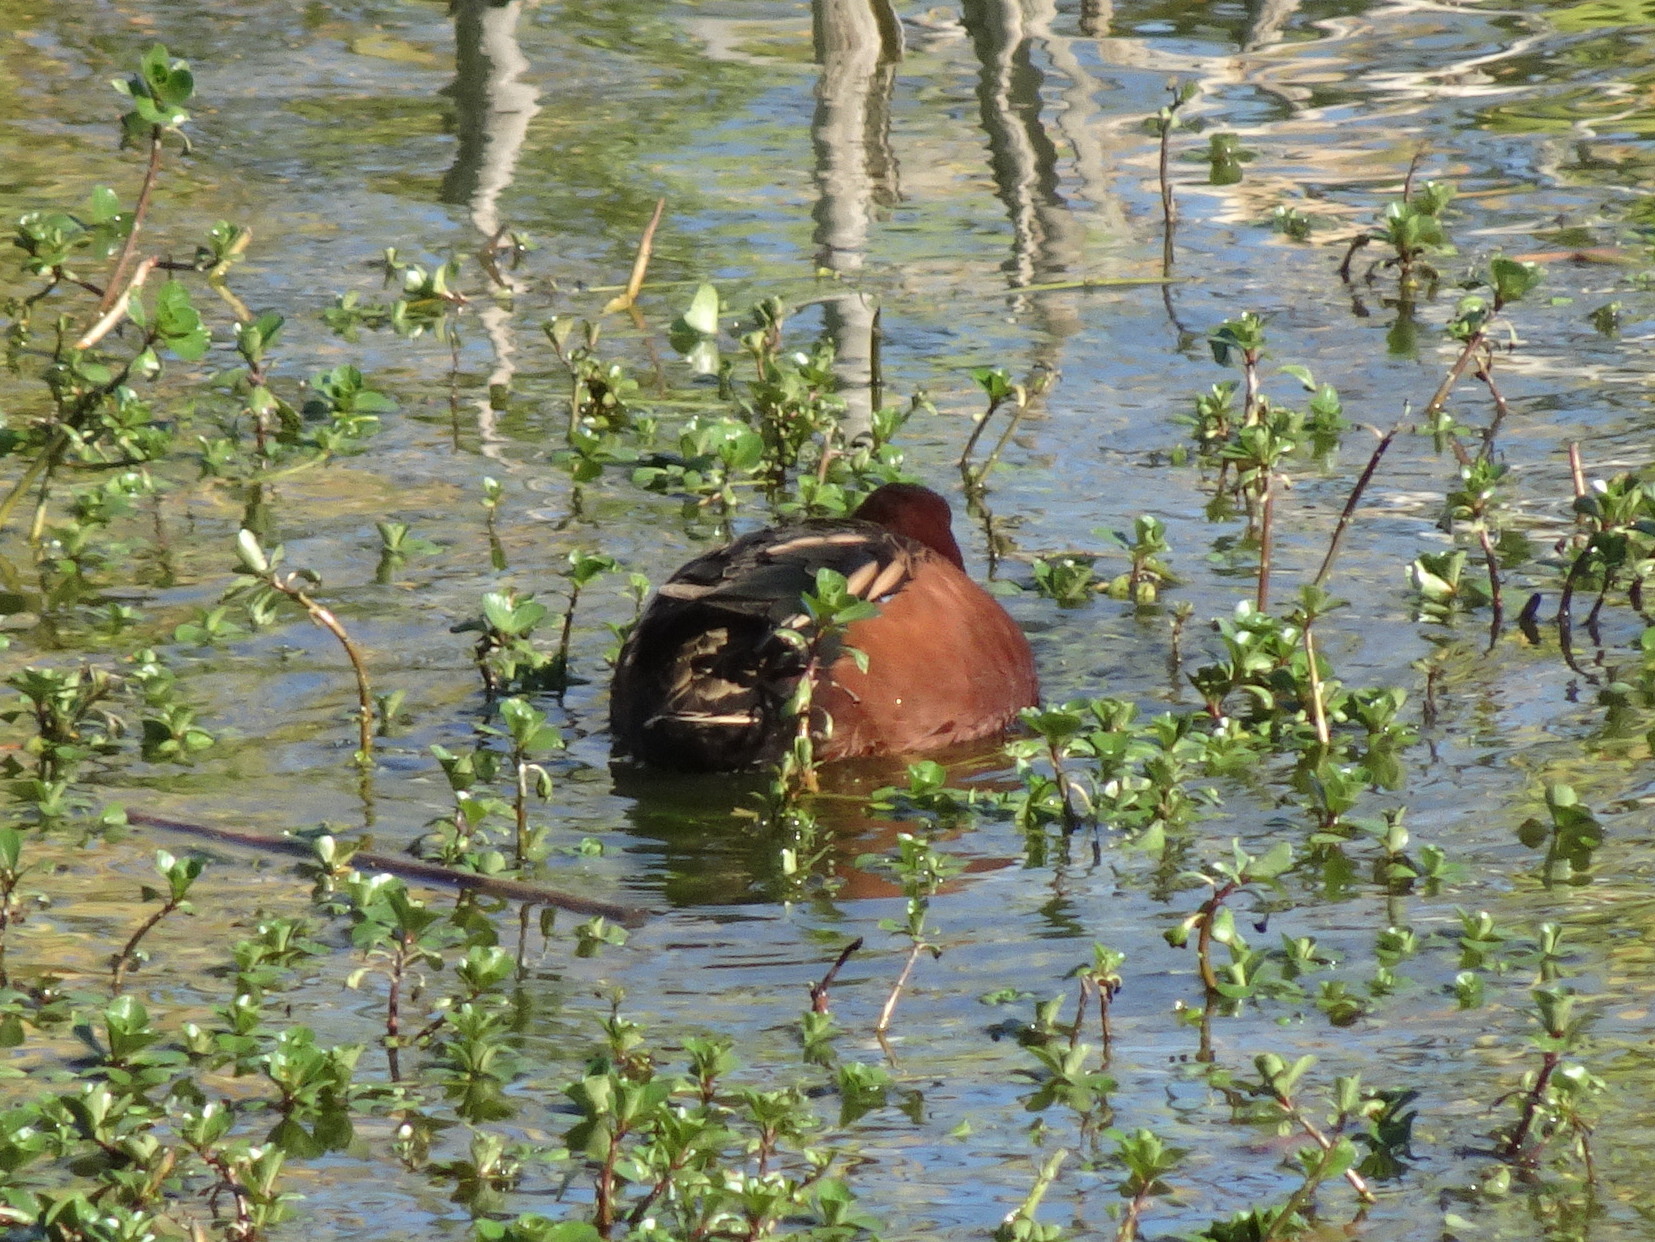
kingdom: Animalia
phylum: Chordata
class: Aves
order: Anseriformes
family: Anatidae
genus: Spatula
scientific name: Spatula cyanoptera
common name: Cinnamon teal
